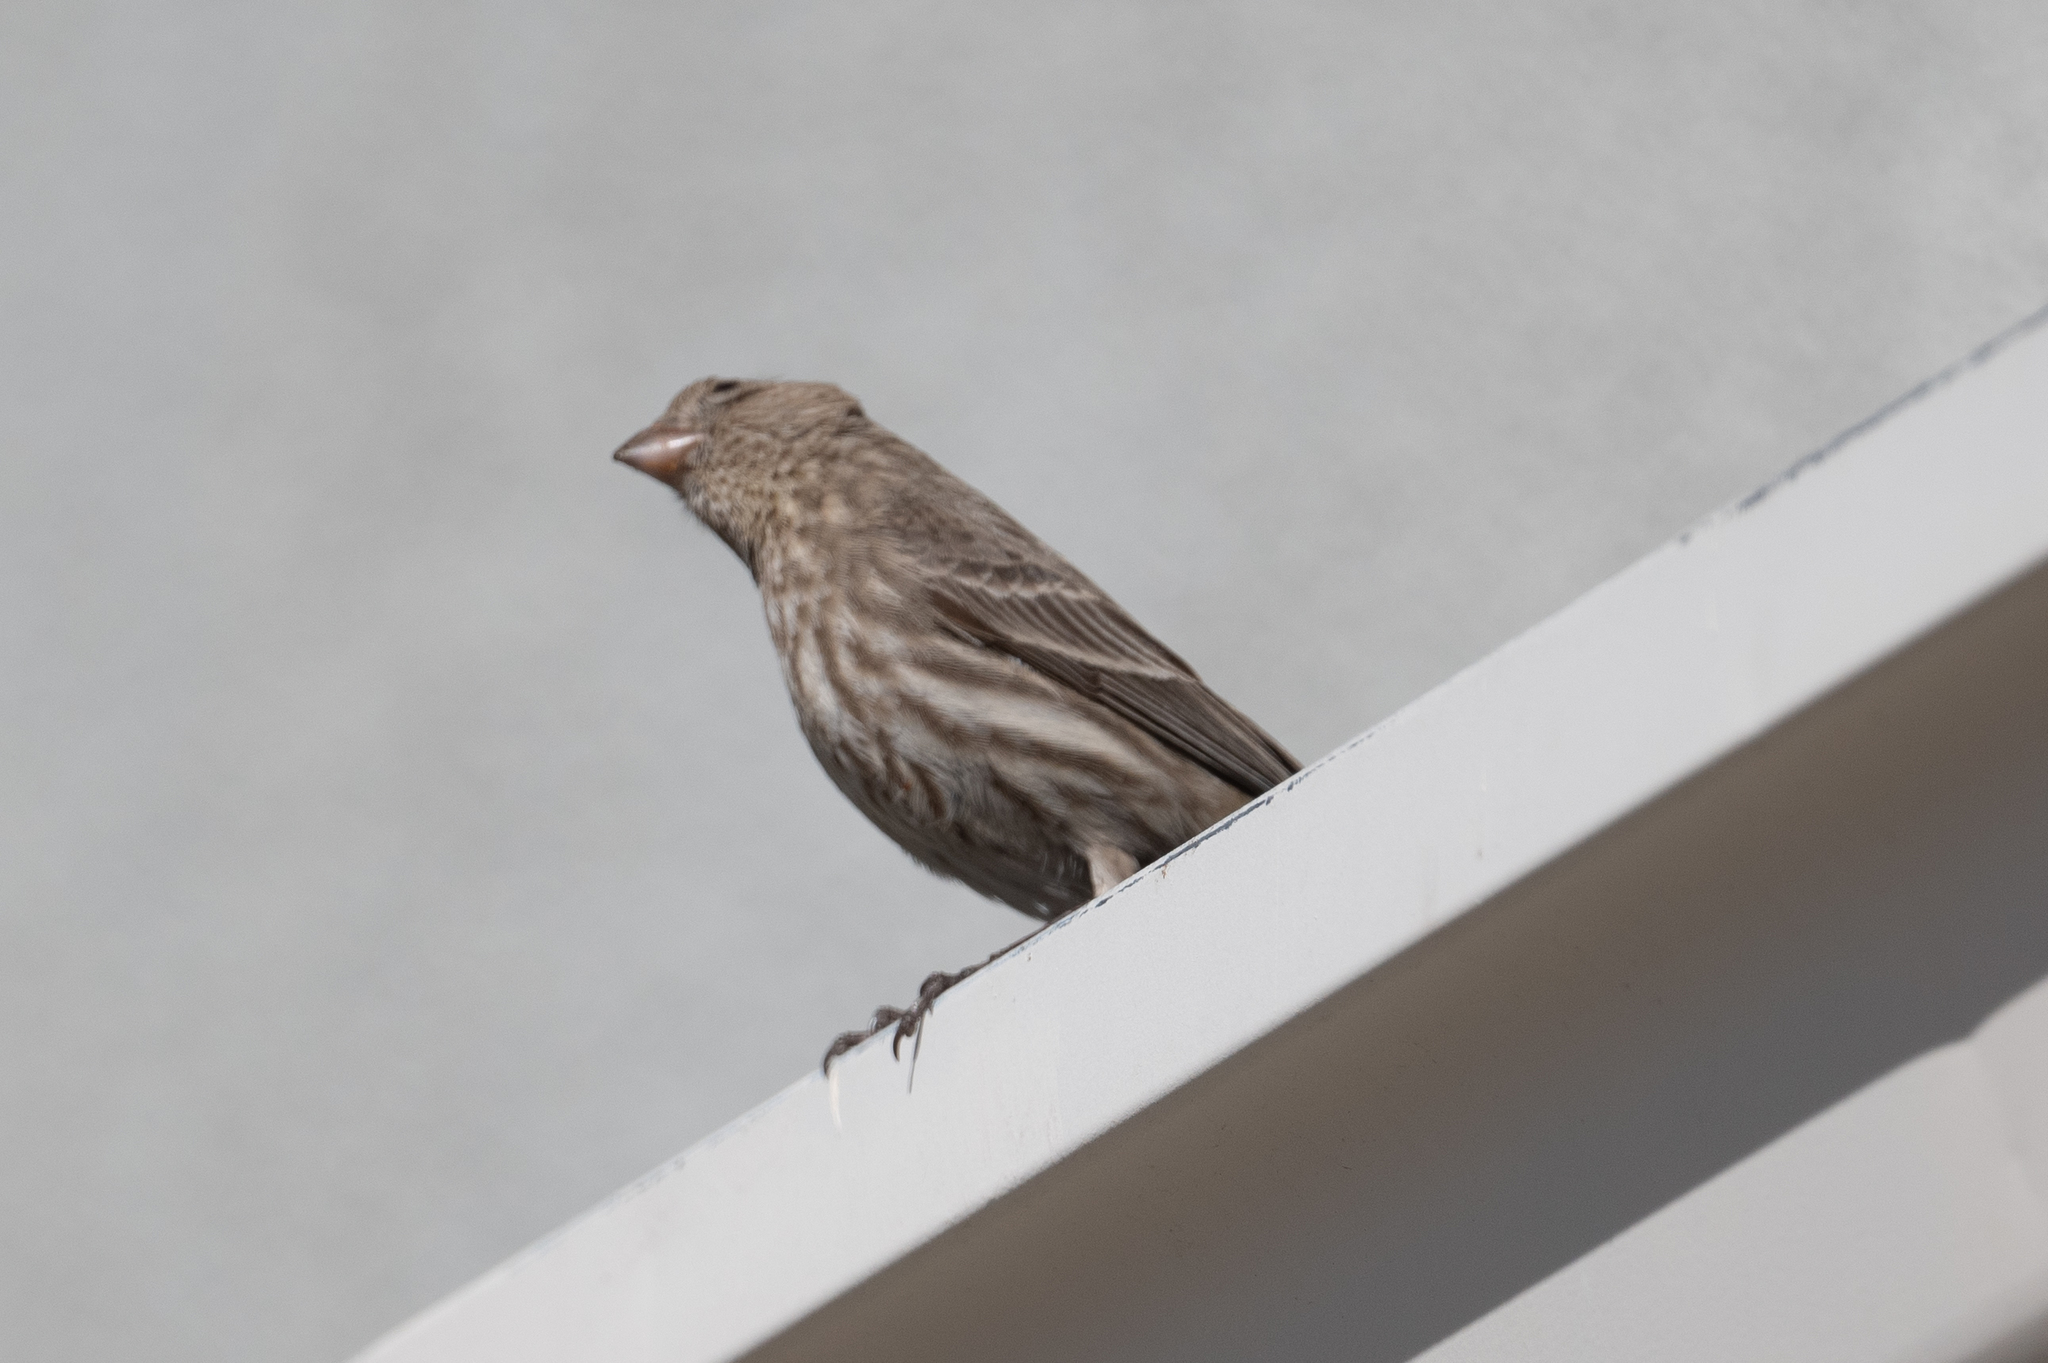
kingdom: Animalia
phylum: Chordata
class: Aves
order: Passeriformes
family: Fringillidae
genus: Haemorhous
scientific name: Haemorhous mexicanus
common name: House finch
